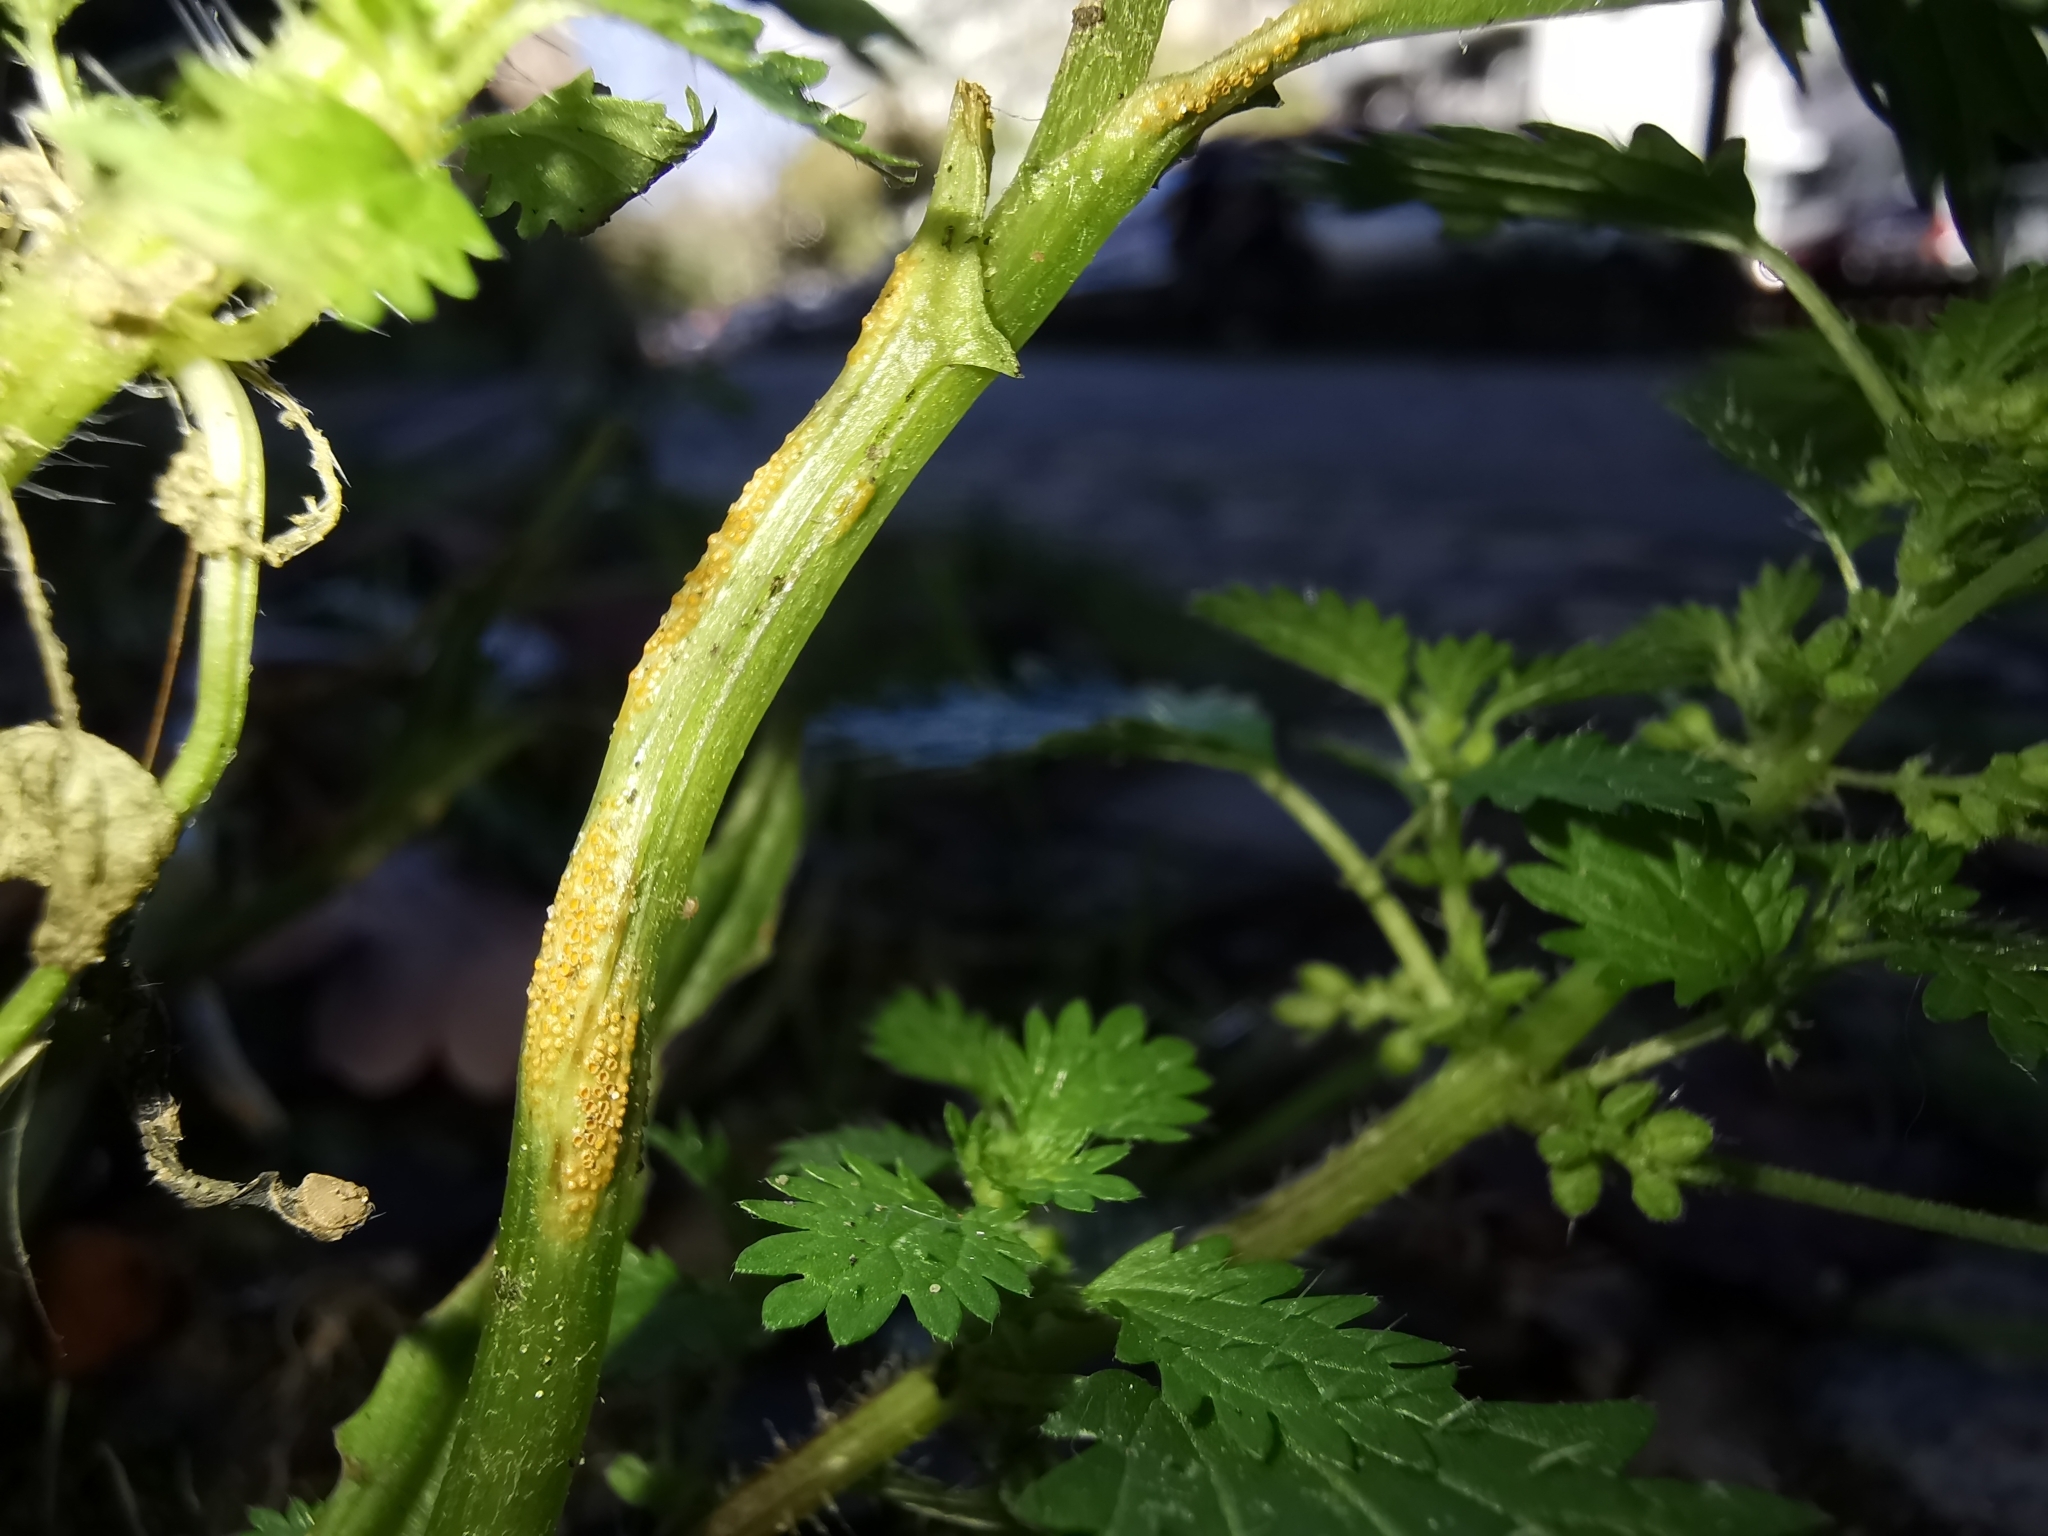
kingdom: Fungi
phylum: Basidiomycota
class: Pucciniomycetes
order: Pucciniales
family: Pucciniaceae
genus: Puccinia
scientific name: Puccinia lagenophorae
